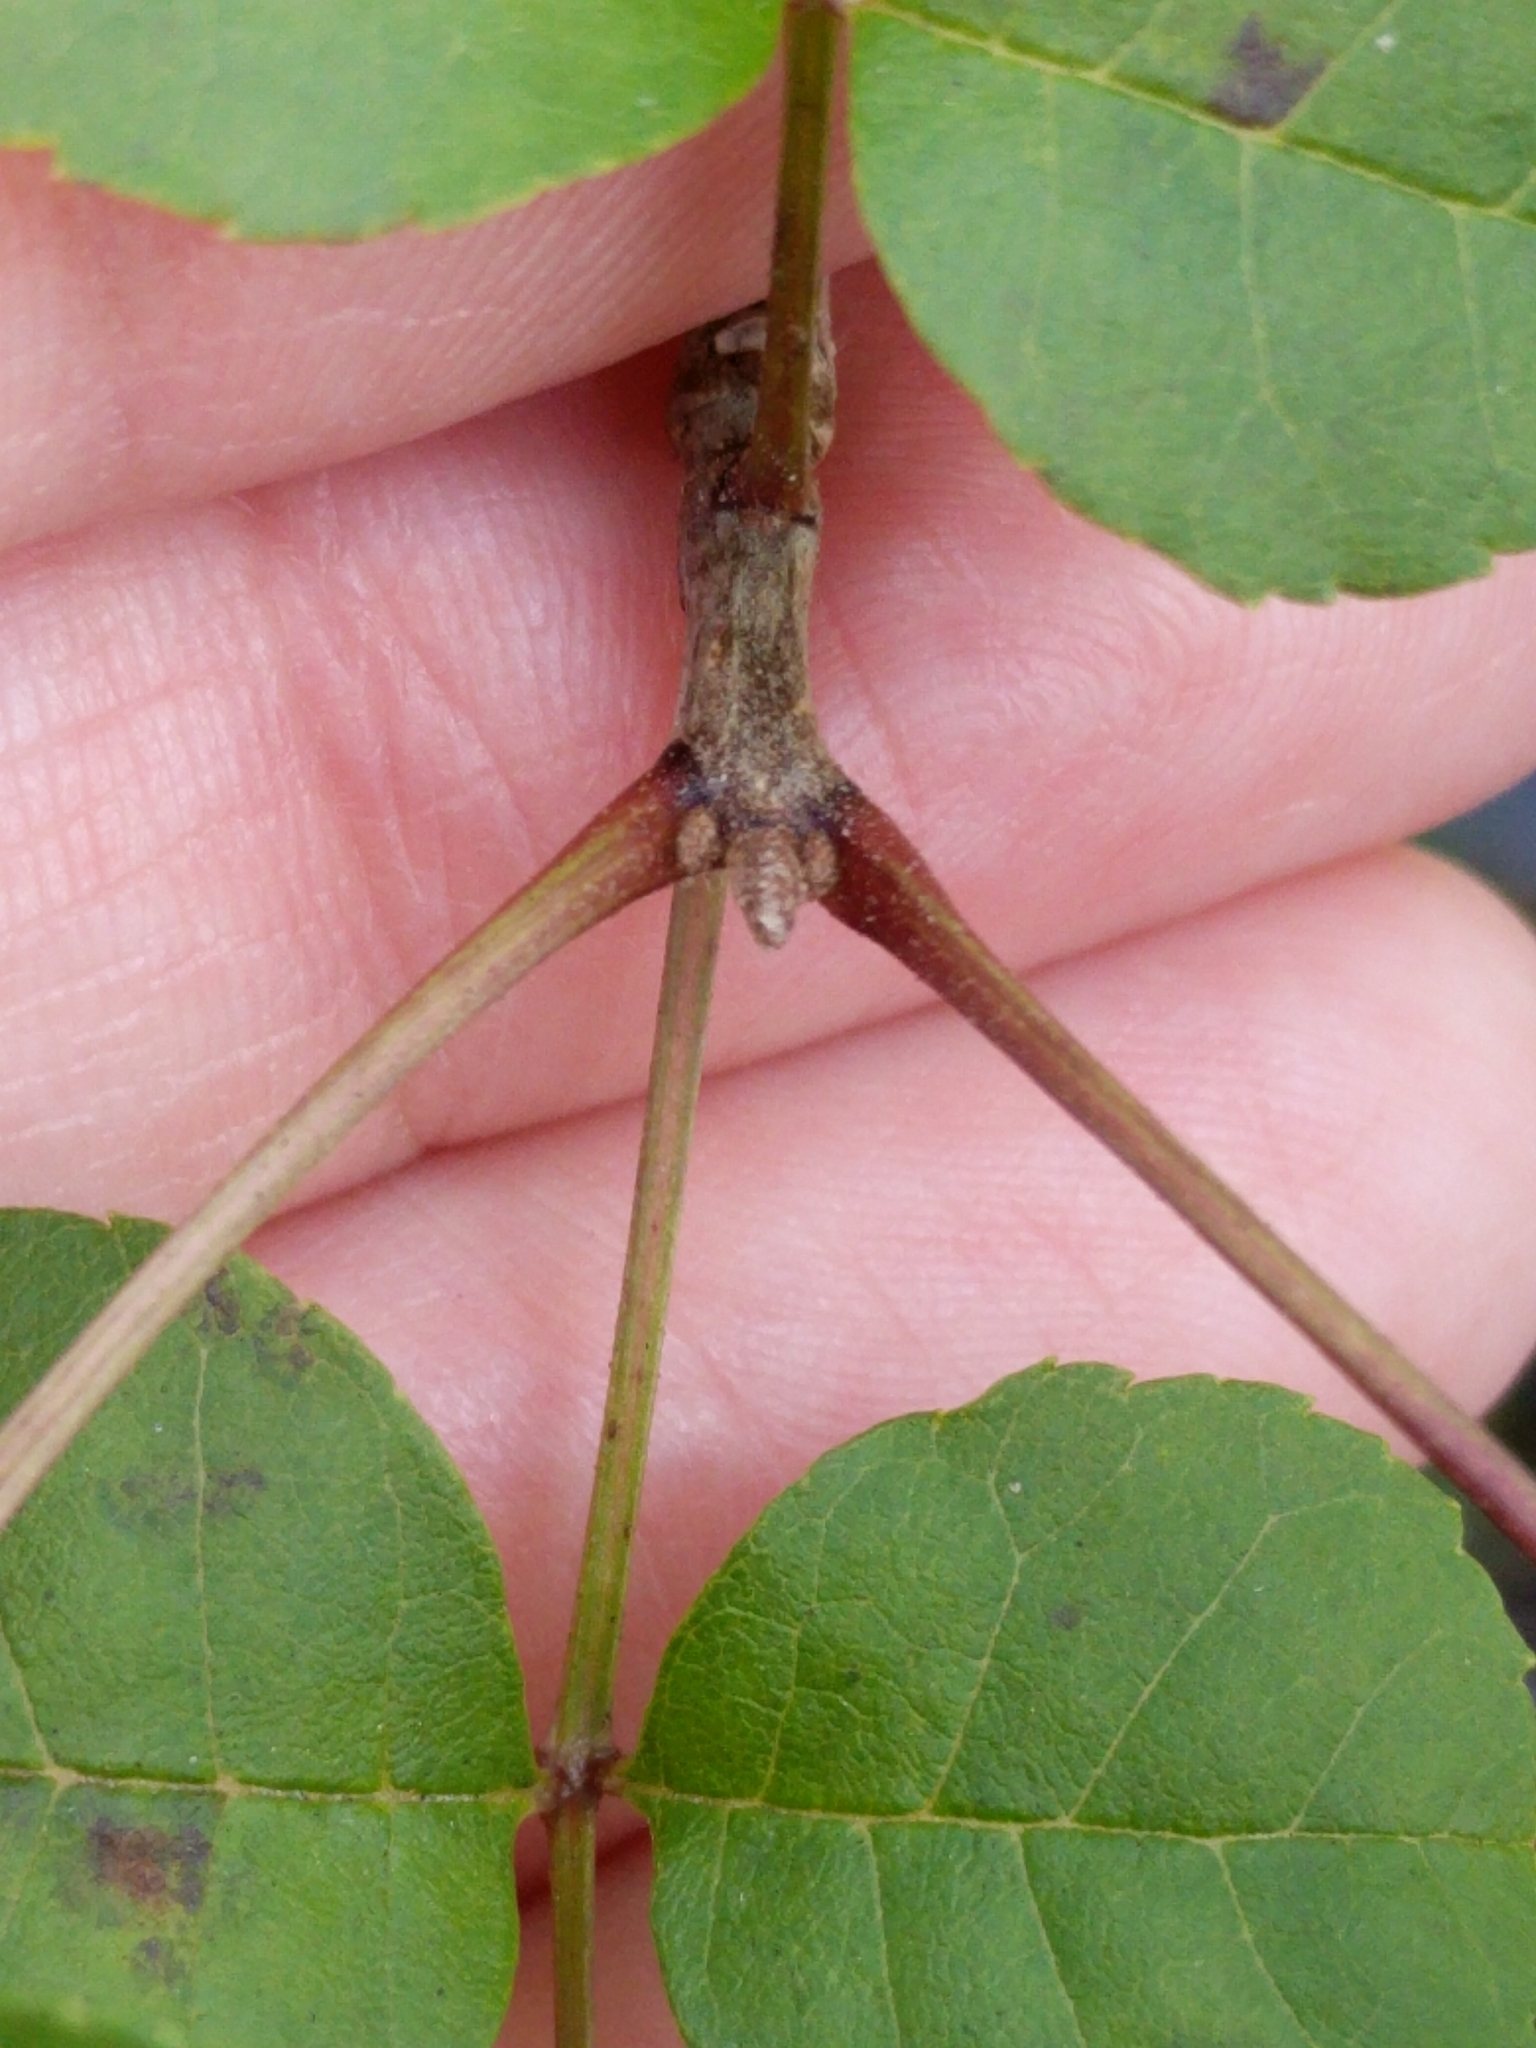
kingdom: Plantae
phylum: Tracheophyta
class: Magnoliopsida
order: Lamiales
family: Oleaceae
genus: Fraxinus
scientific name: Fraxinus caroliniana
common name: Carolina ash
